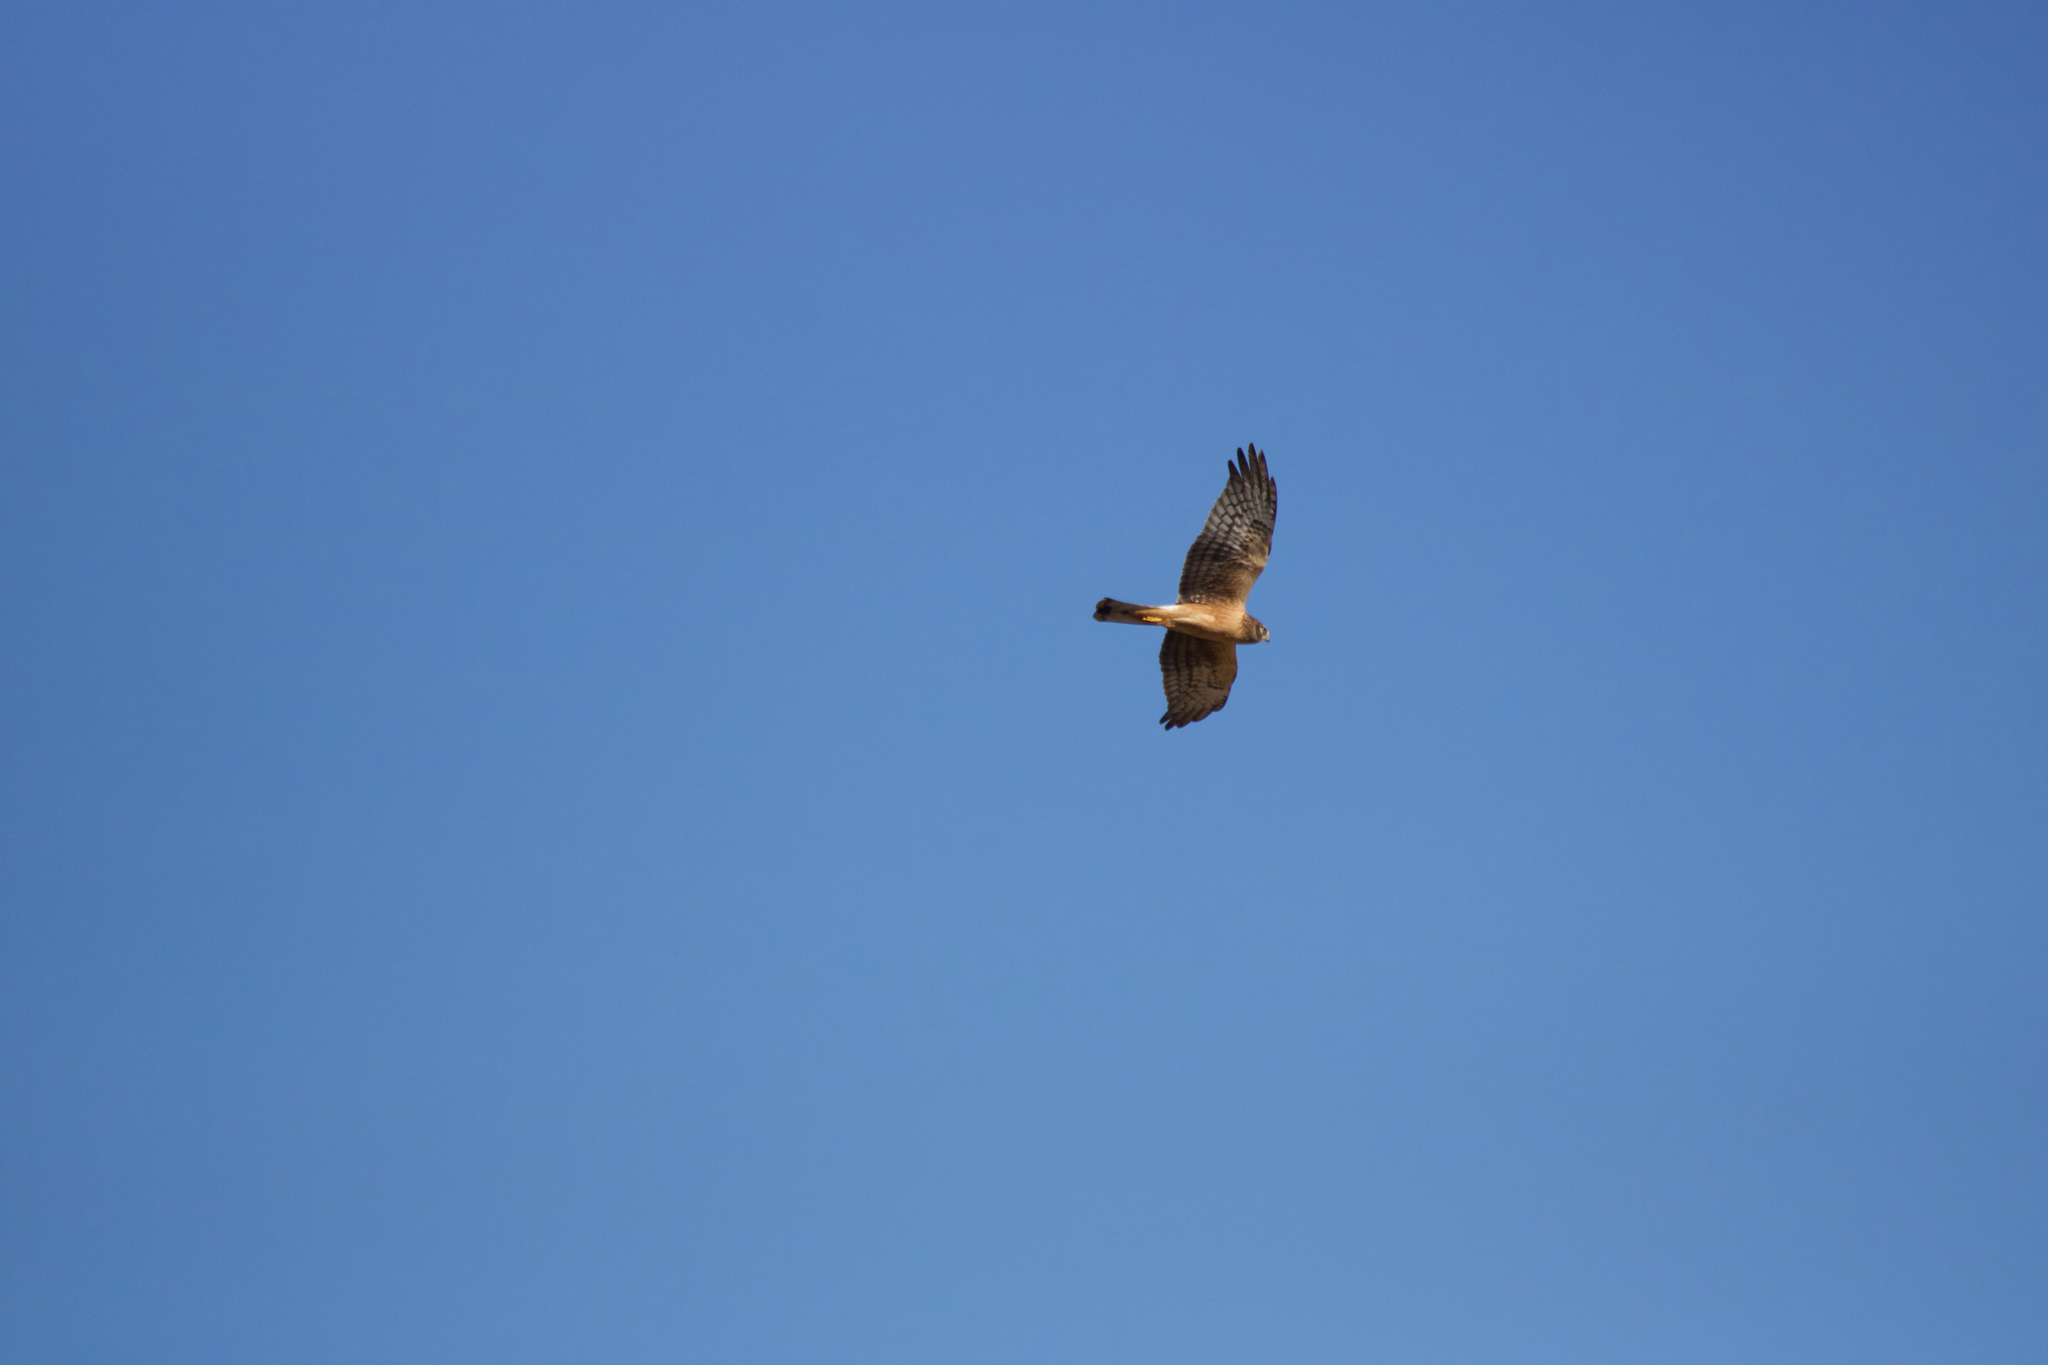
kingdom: Animalia
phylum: Chordata
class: Aves
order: Accipitriformes
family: Accipitridae
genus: Circus
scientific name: Circus cyaneus
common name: Hen harrier
